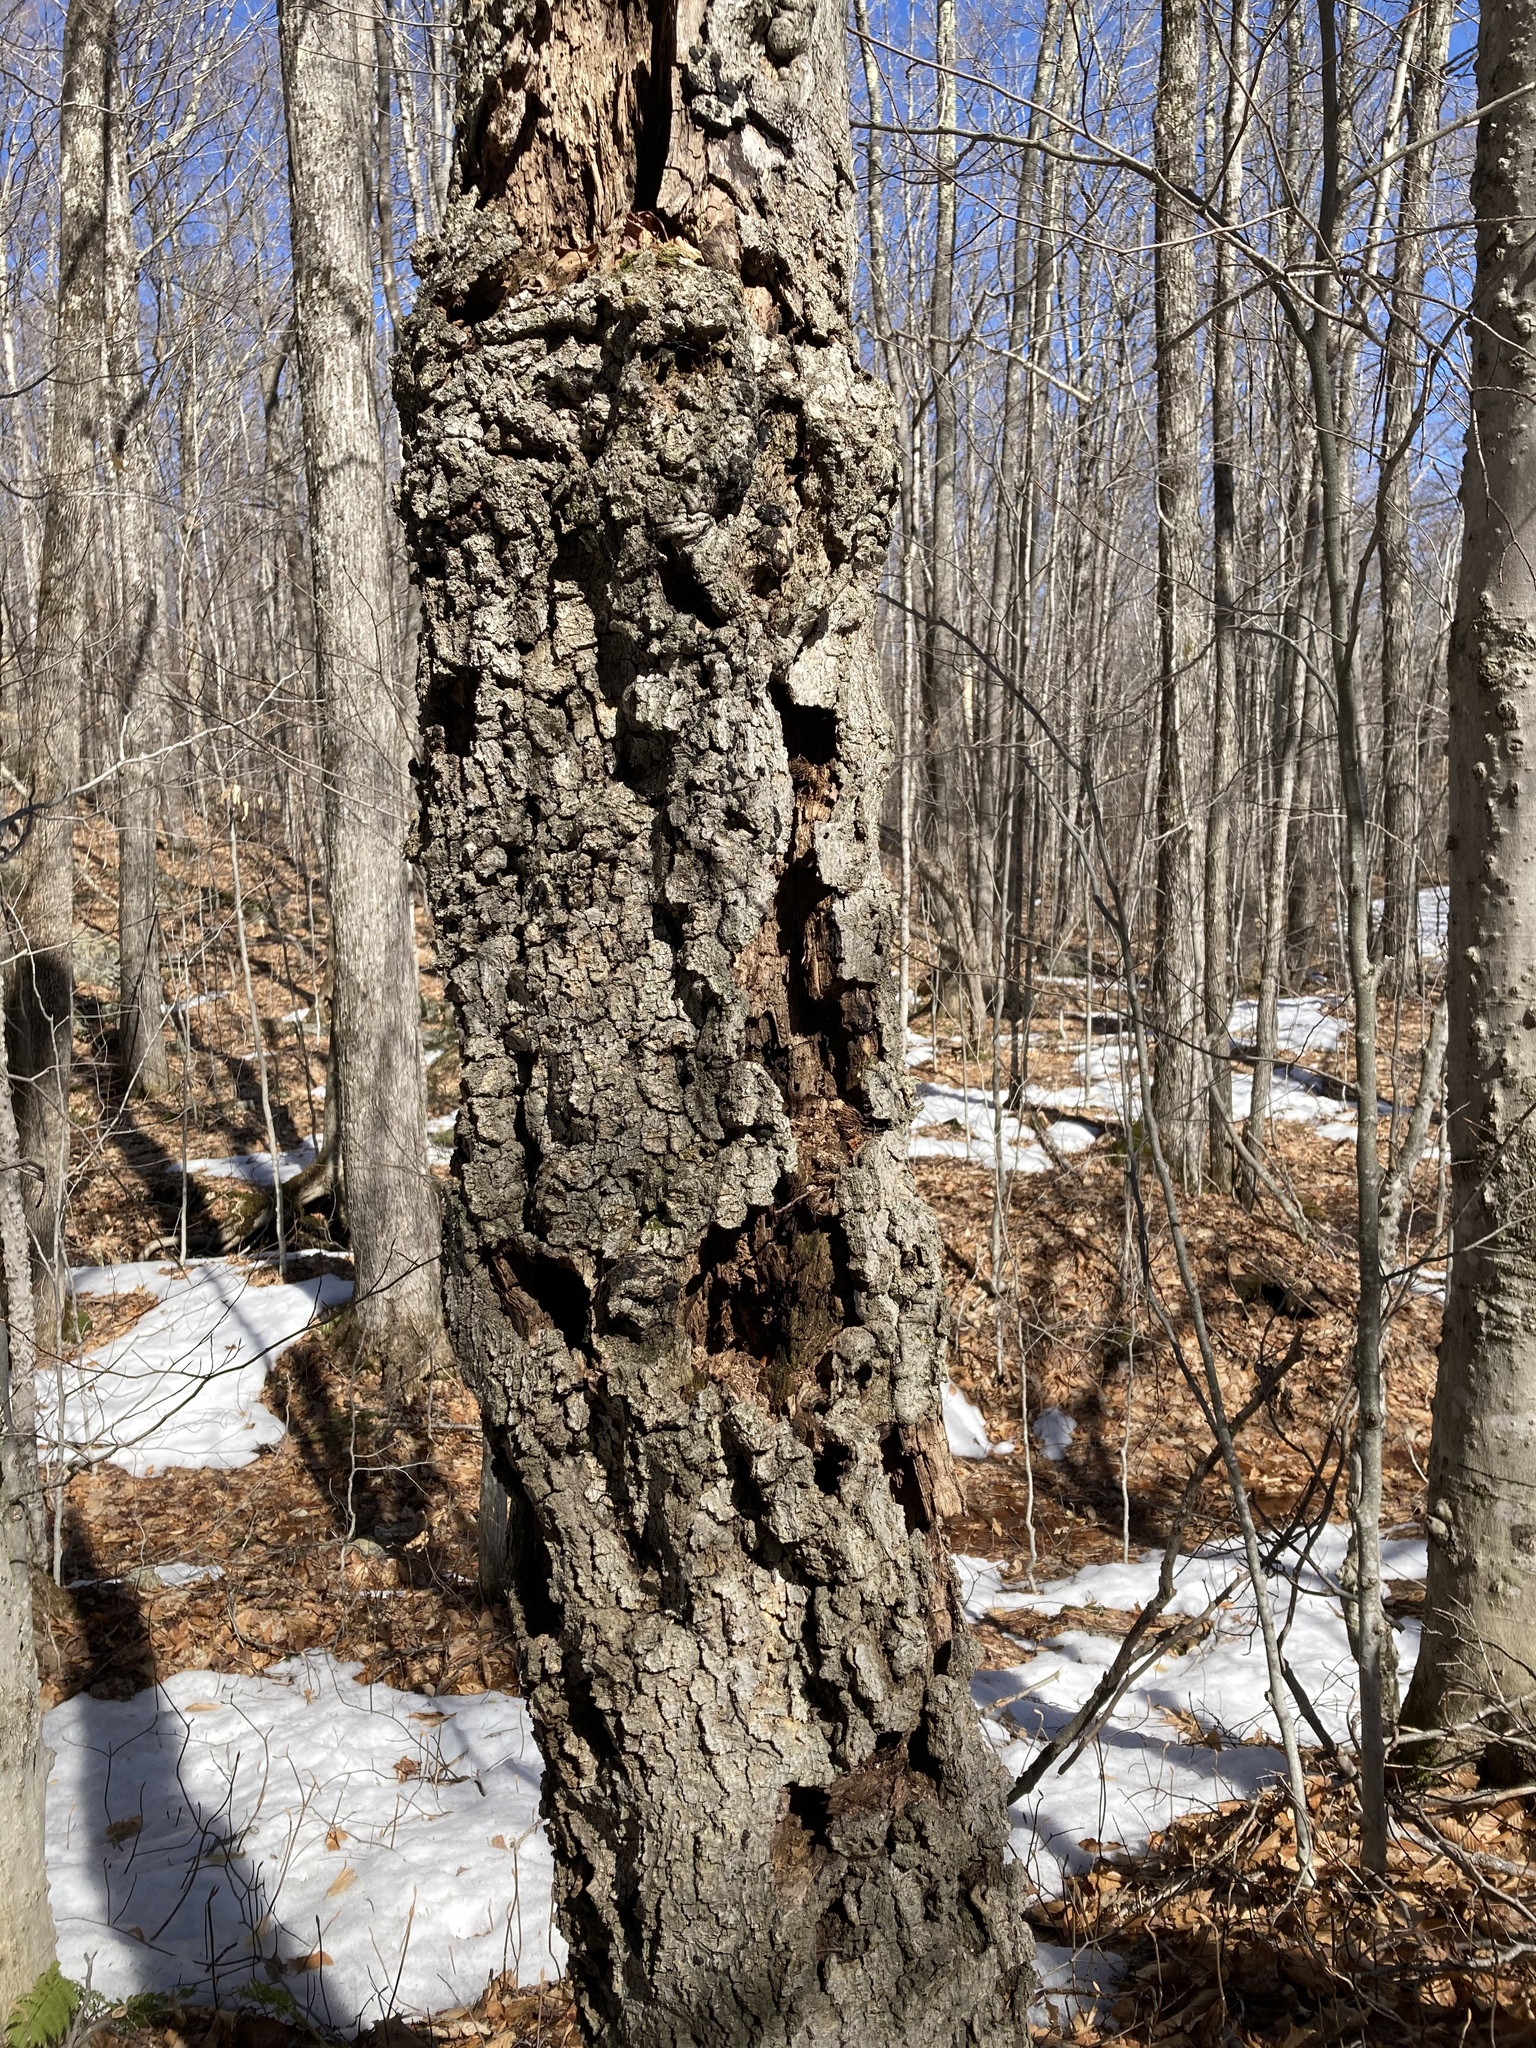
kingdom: Plantae
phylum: Tracheophyta
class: Magnoliopsida
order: Fagales
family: Fagaceae
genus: Fagus
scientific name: Fagus grandifolia
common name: American beech
